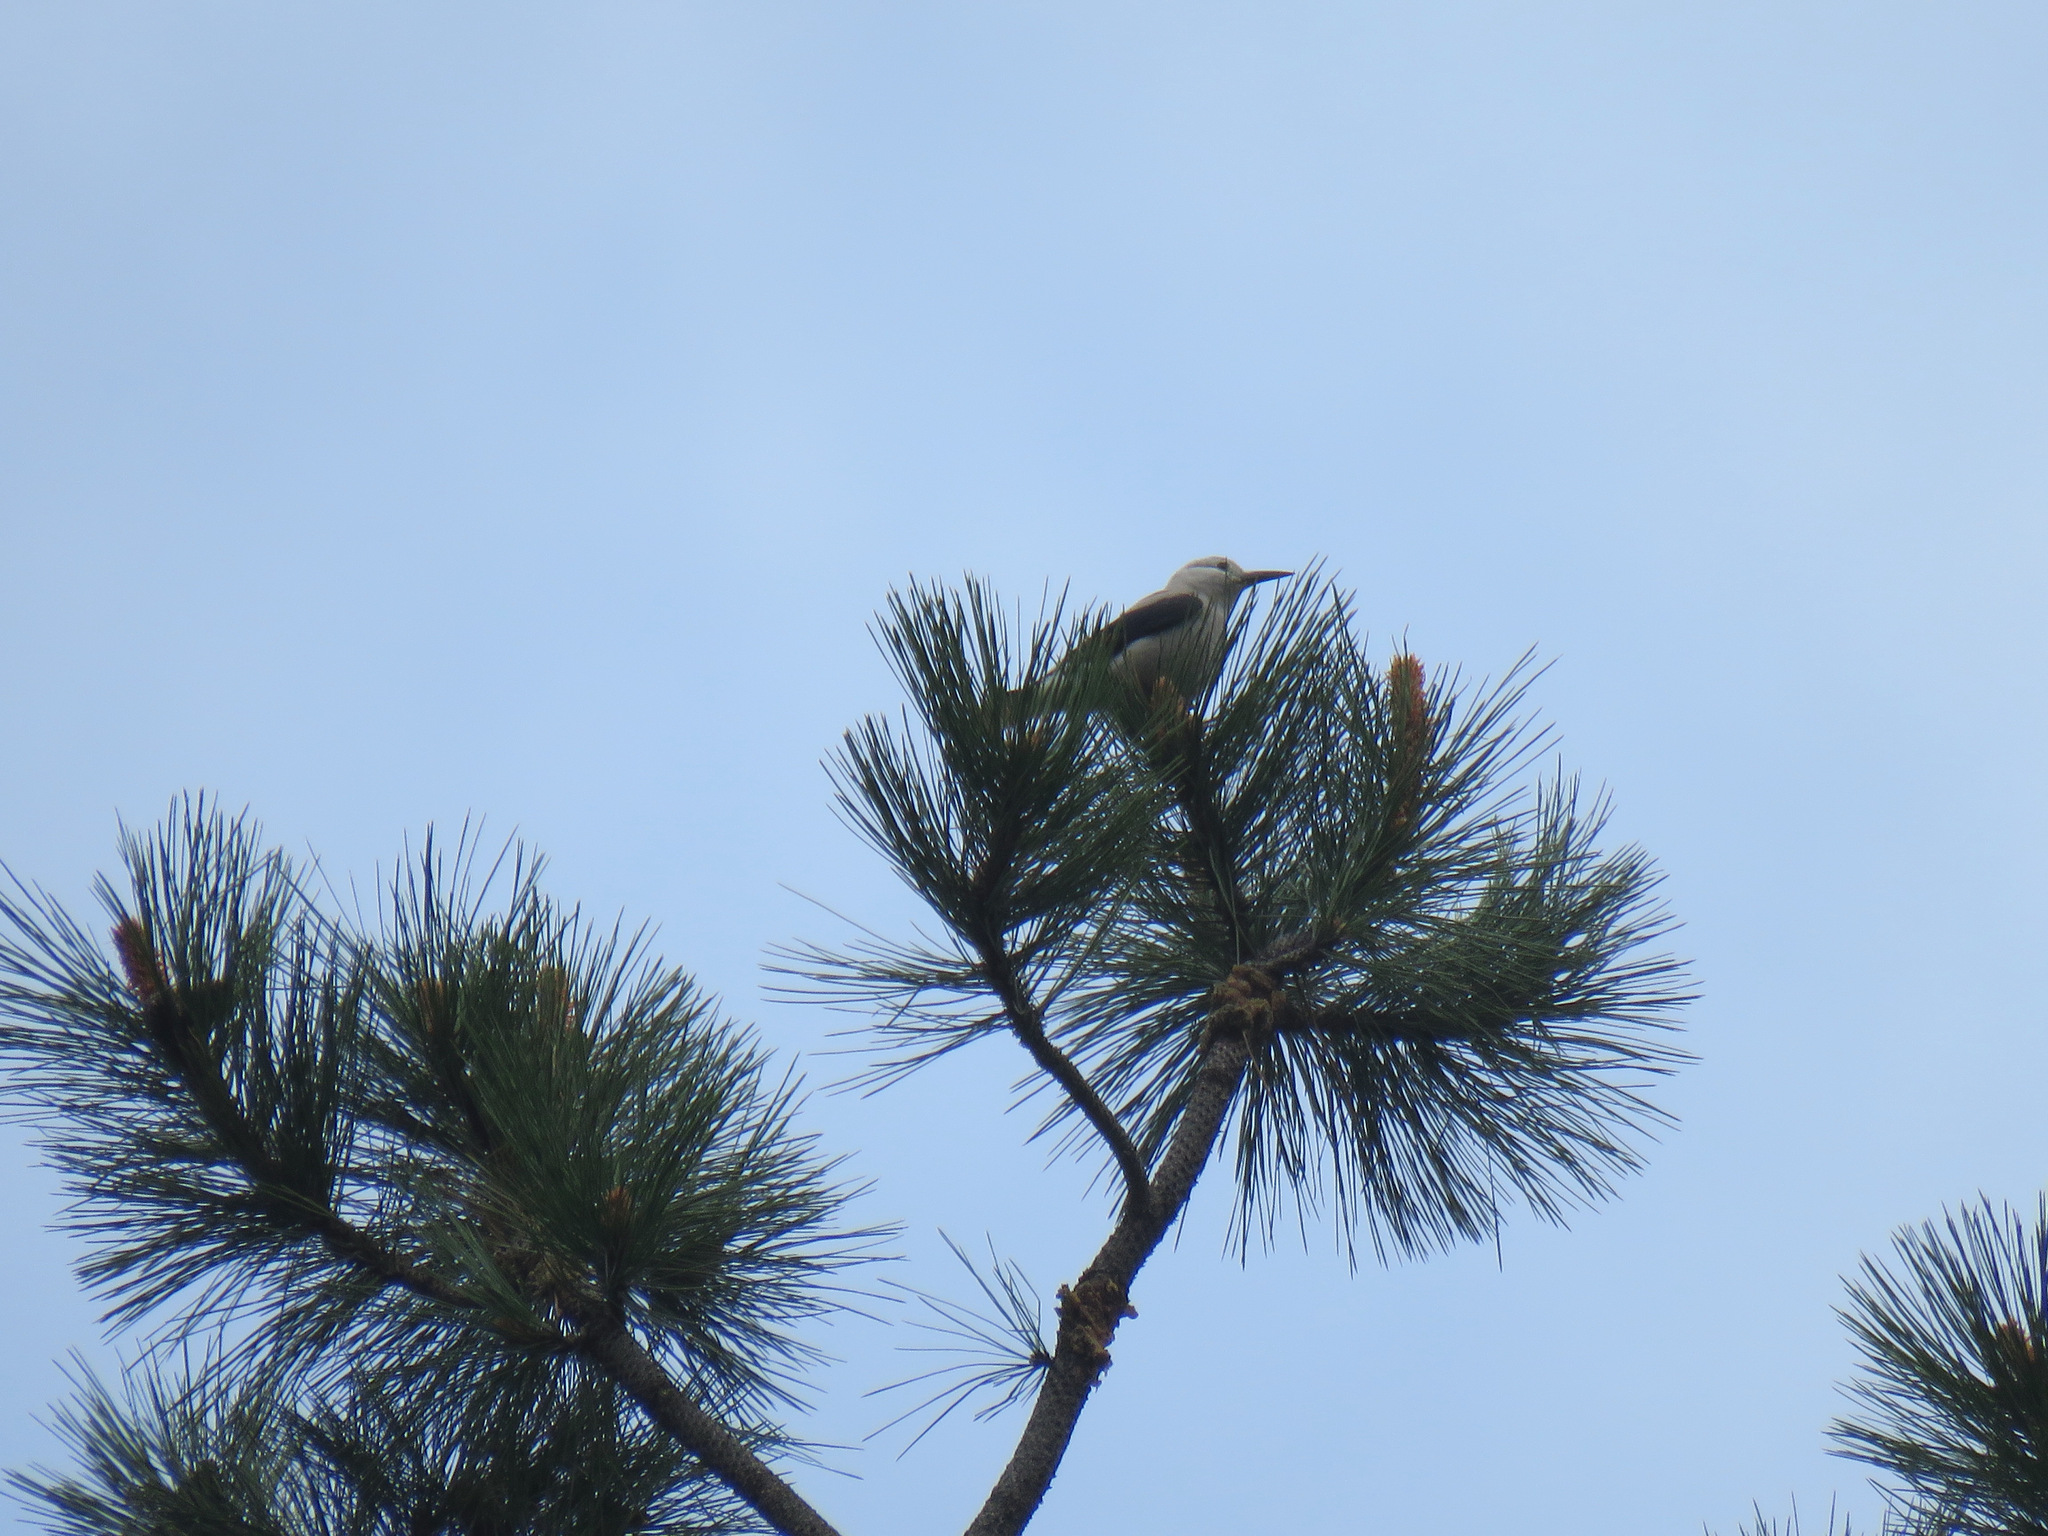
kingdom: Animalia
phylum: Chordata
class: Aves
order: Passeriformes
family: Corvidae
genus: Nucifraga
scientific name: Nucifraga columbiana
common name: Clark's nutcracker
